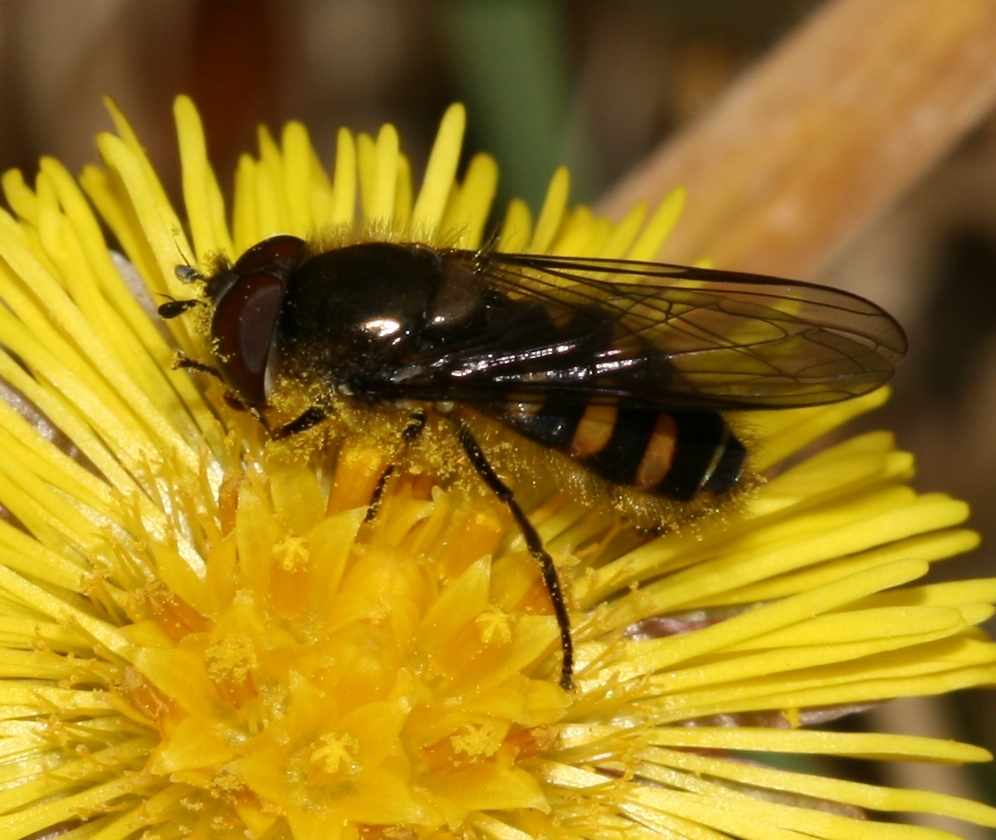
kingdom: Animalia
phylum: Arthropoda
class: Insecta
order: Diptera
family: Syrphidae
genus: Melangyna
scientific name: Melangyna lasiophthalma
